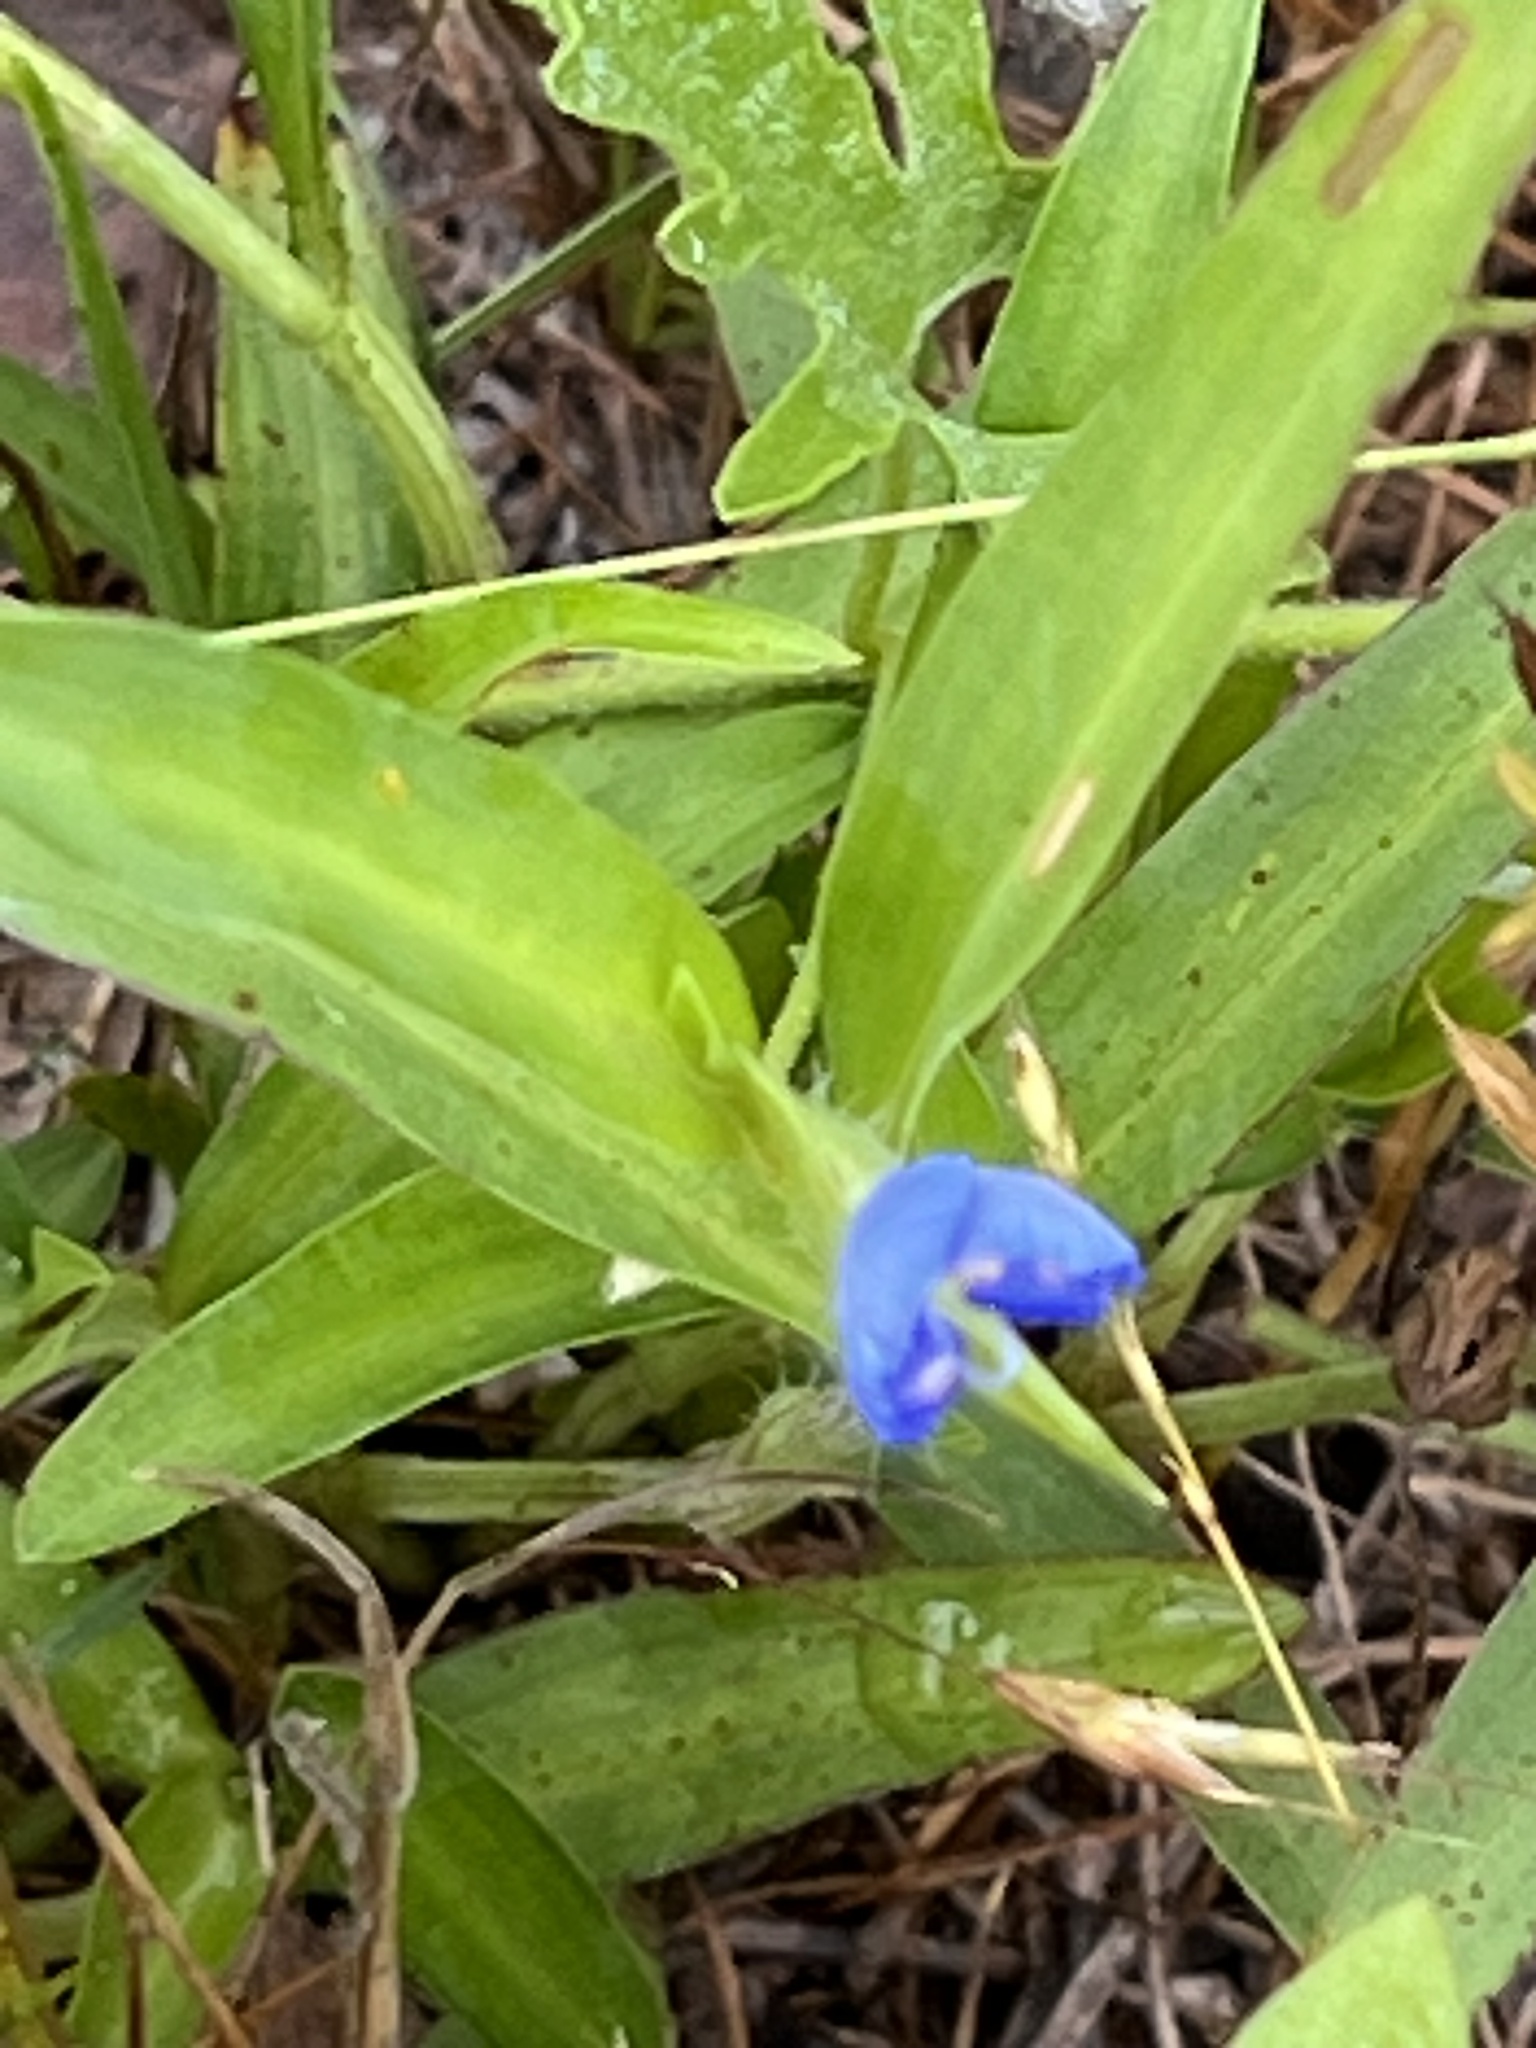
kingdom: Plantae
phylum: Tracheophyta
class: Liliopsida
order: Commelinales
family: Commelinaceae
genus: Commelina
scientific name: Commelina erecta
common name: Blousel blommetjie
